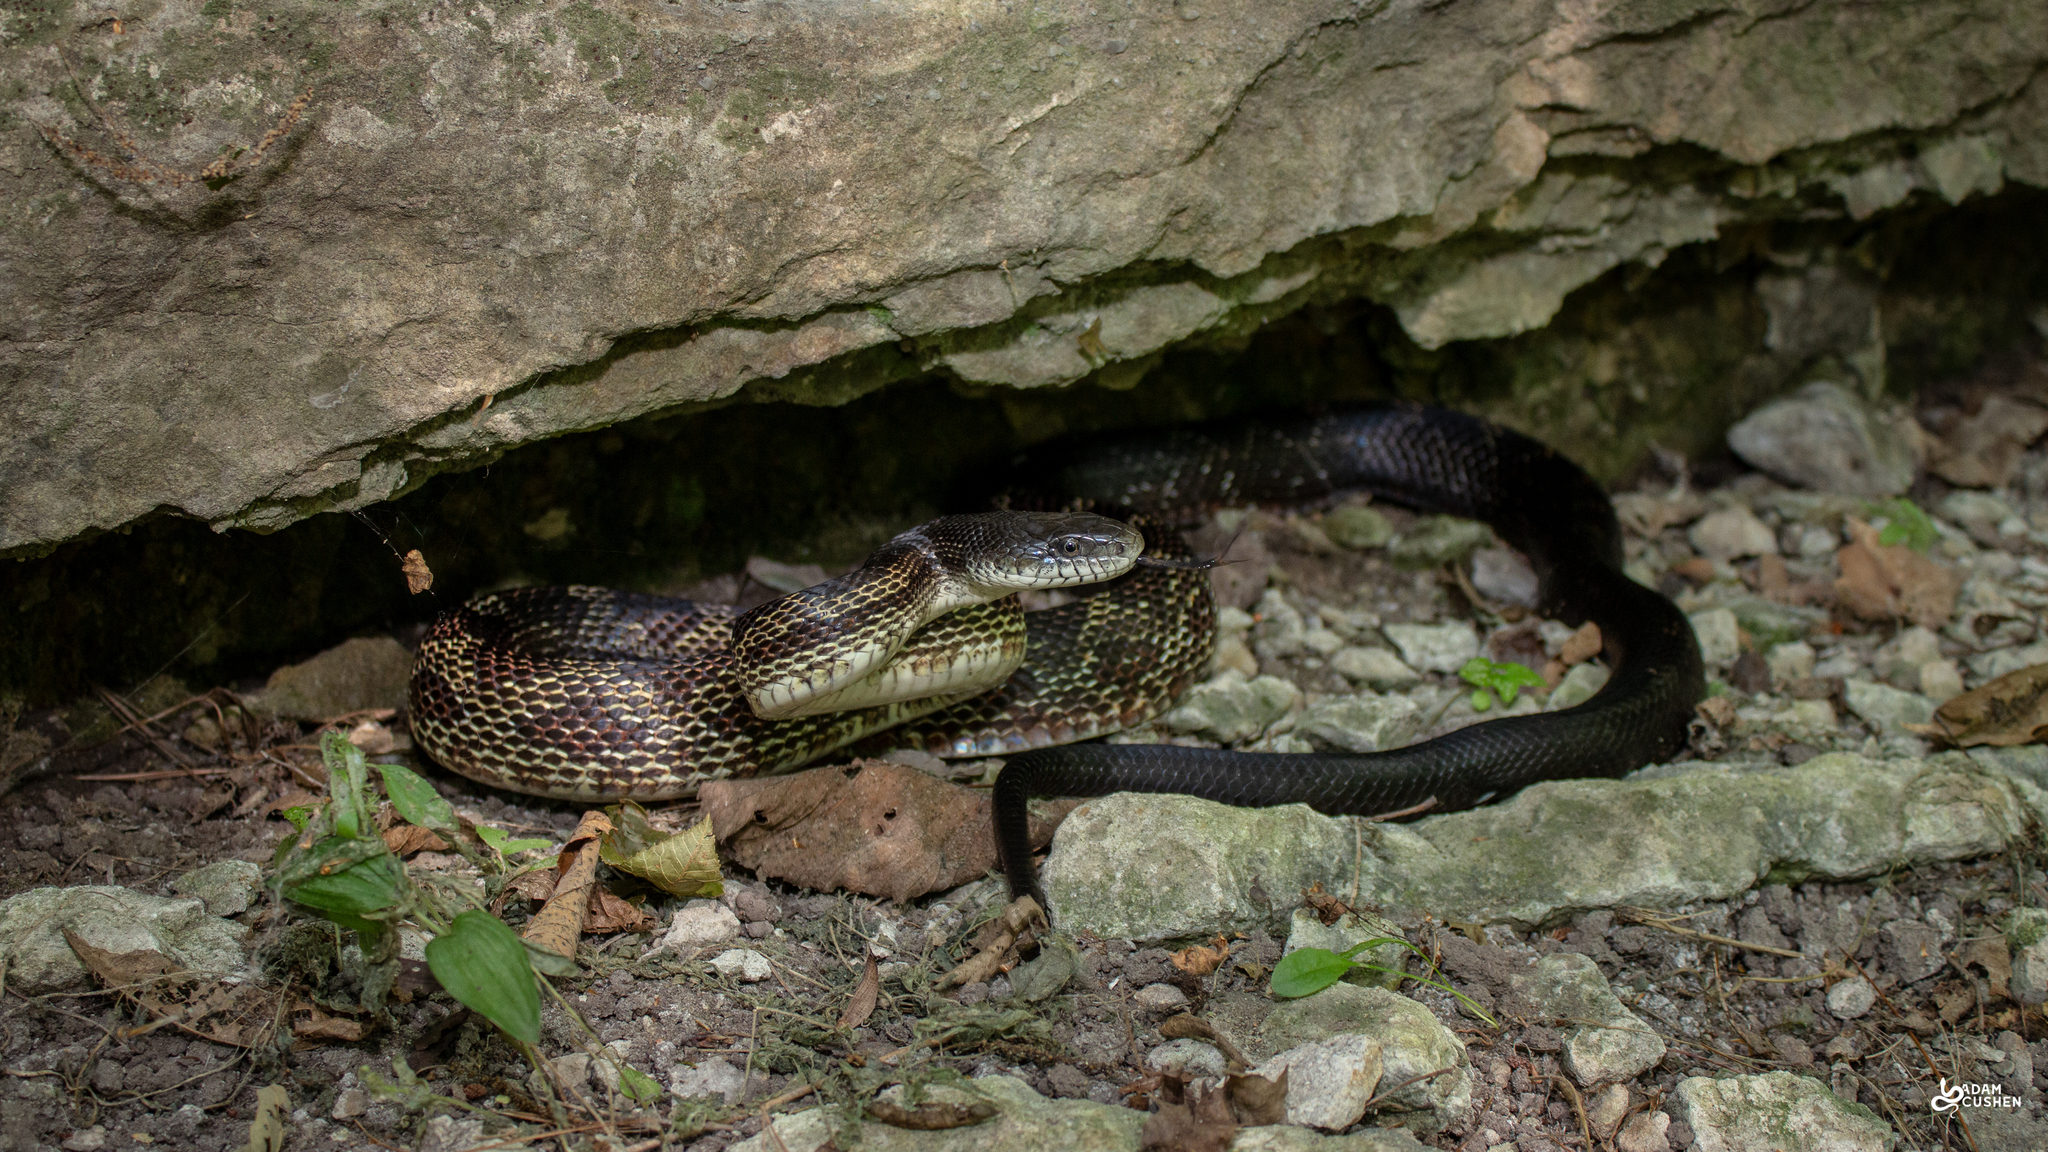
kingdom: Animalia
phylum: Chordata
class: Squamata
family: Colubridae
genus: Pantherophis
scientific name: Pantherophis spiloides
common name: Gray rat snake
